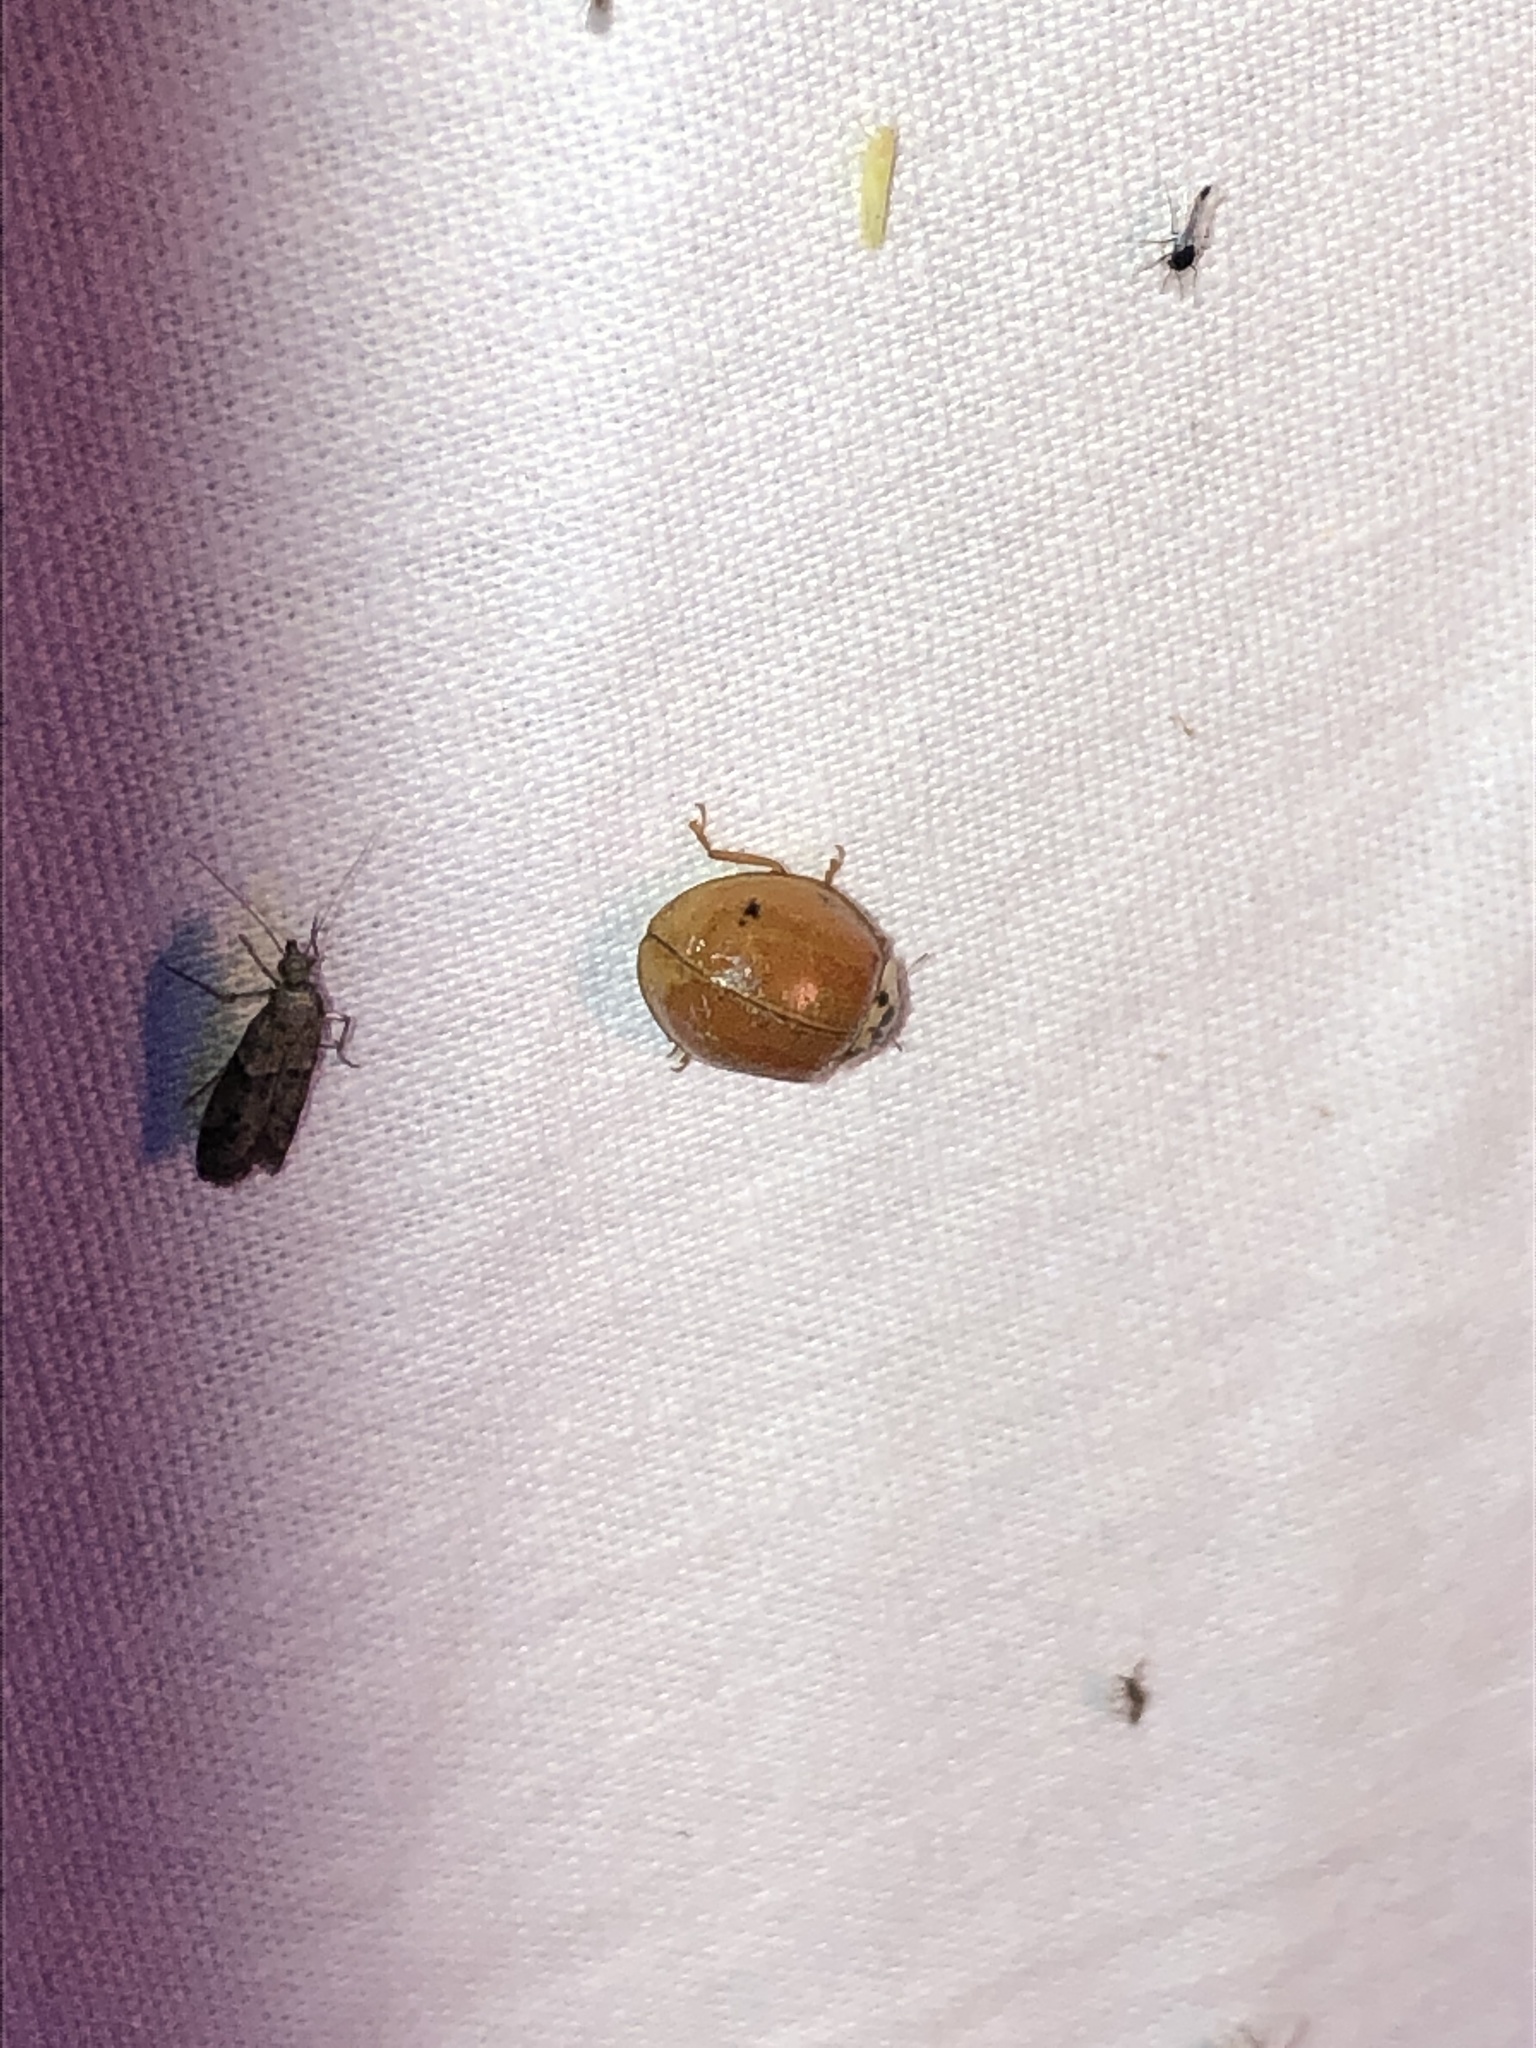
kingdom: Animalia
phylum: Arthropoda
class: Insecta
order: Coleoptera
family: Coccinellidae
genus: Harmonia
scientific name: Harmonia axyridis
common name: Harlequin ladybird
